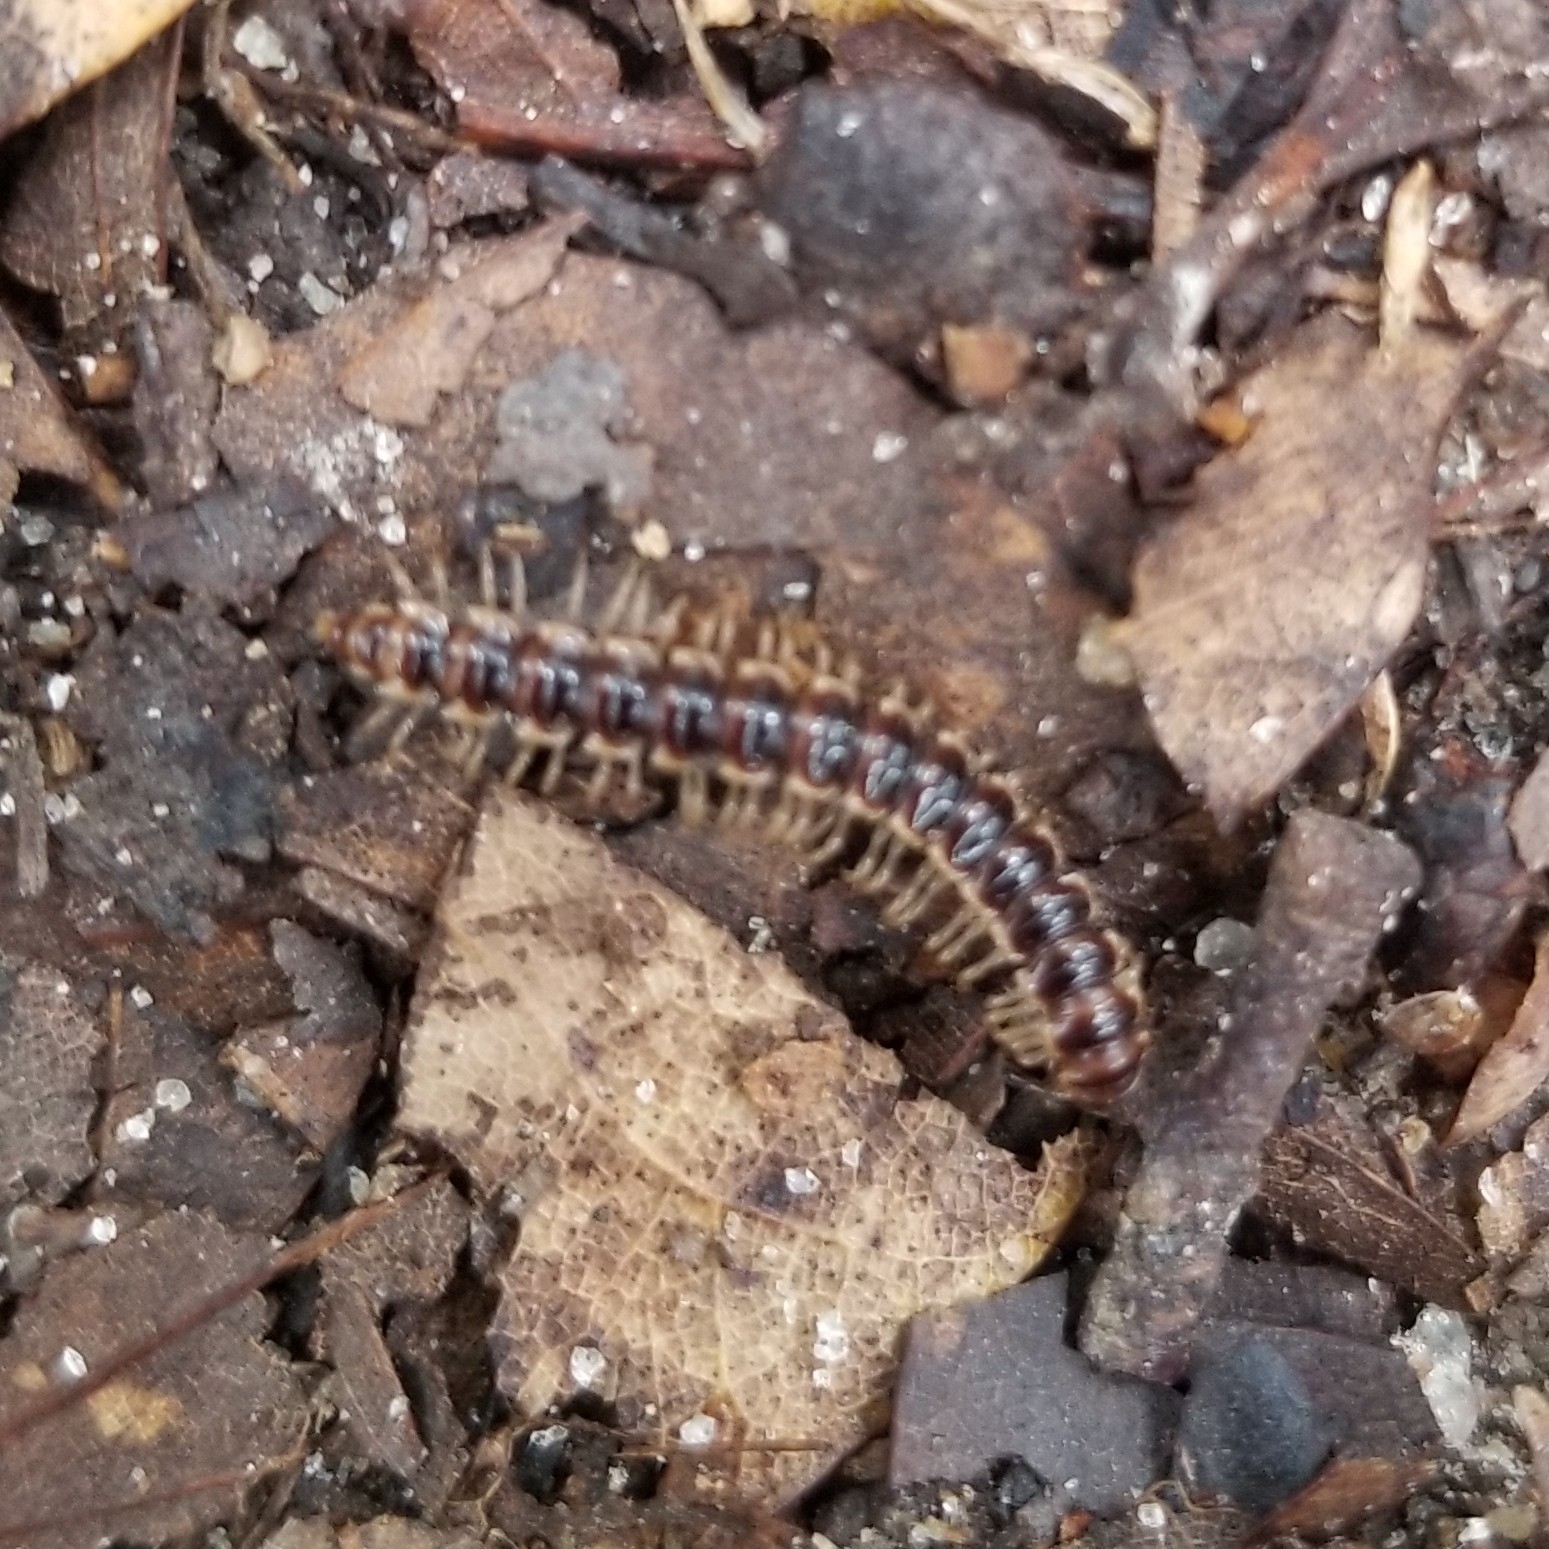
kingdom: Animalia
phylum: Arthropoda
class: Diplopoda
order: Polydesmida
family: Paradoxosomatidae
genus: Oxidus
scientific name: Oxidus gracilis
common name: Greenhouse millipede
